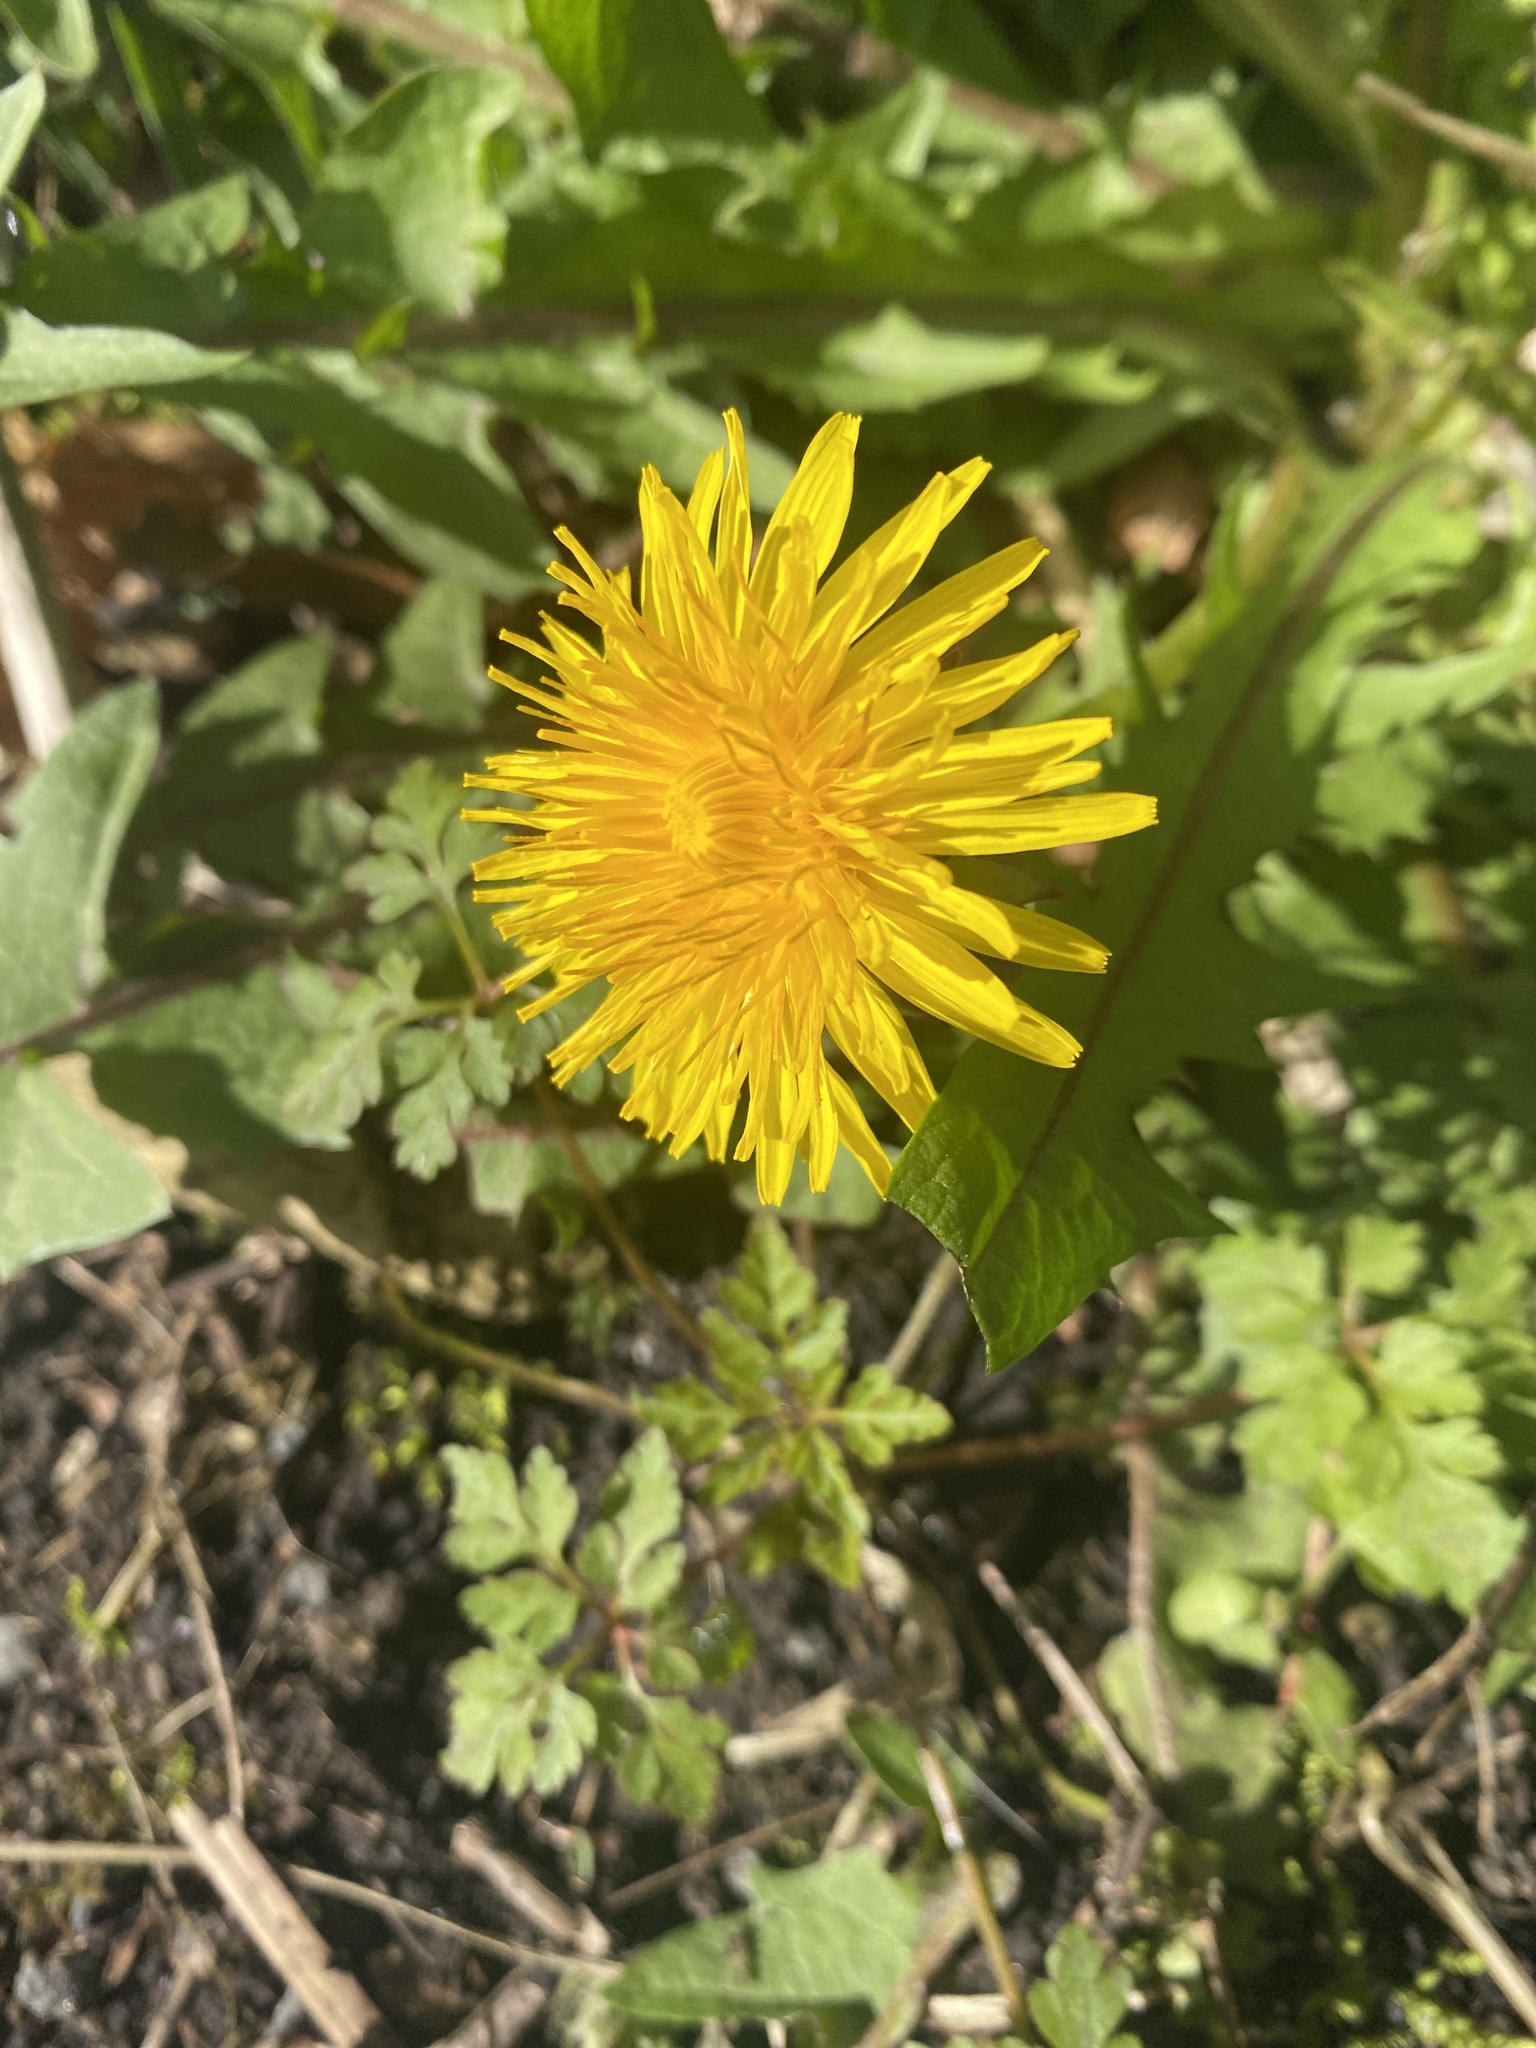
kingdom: Plantae
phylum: Tracheophyta
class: Magnoliopsida
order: Asterales
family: Asteraceae
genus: Taraxacum
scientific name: Taraxacum officinale
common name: Common dandelion
